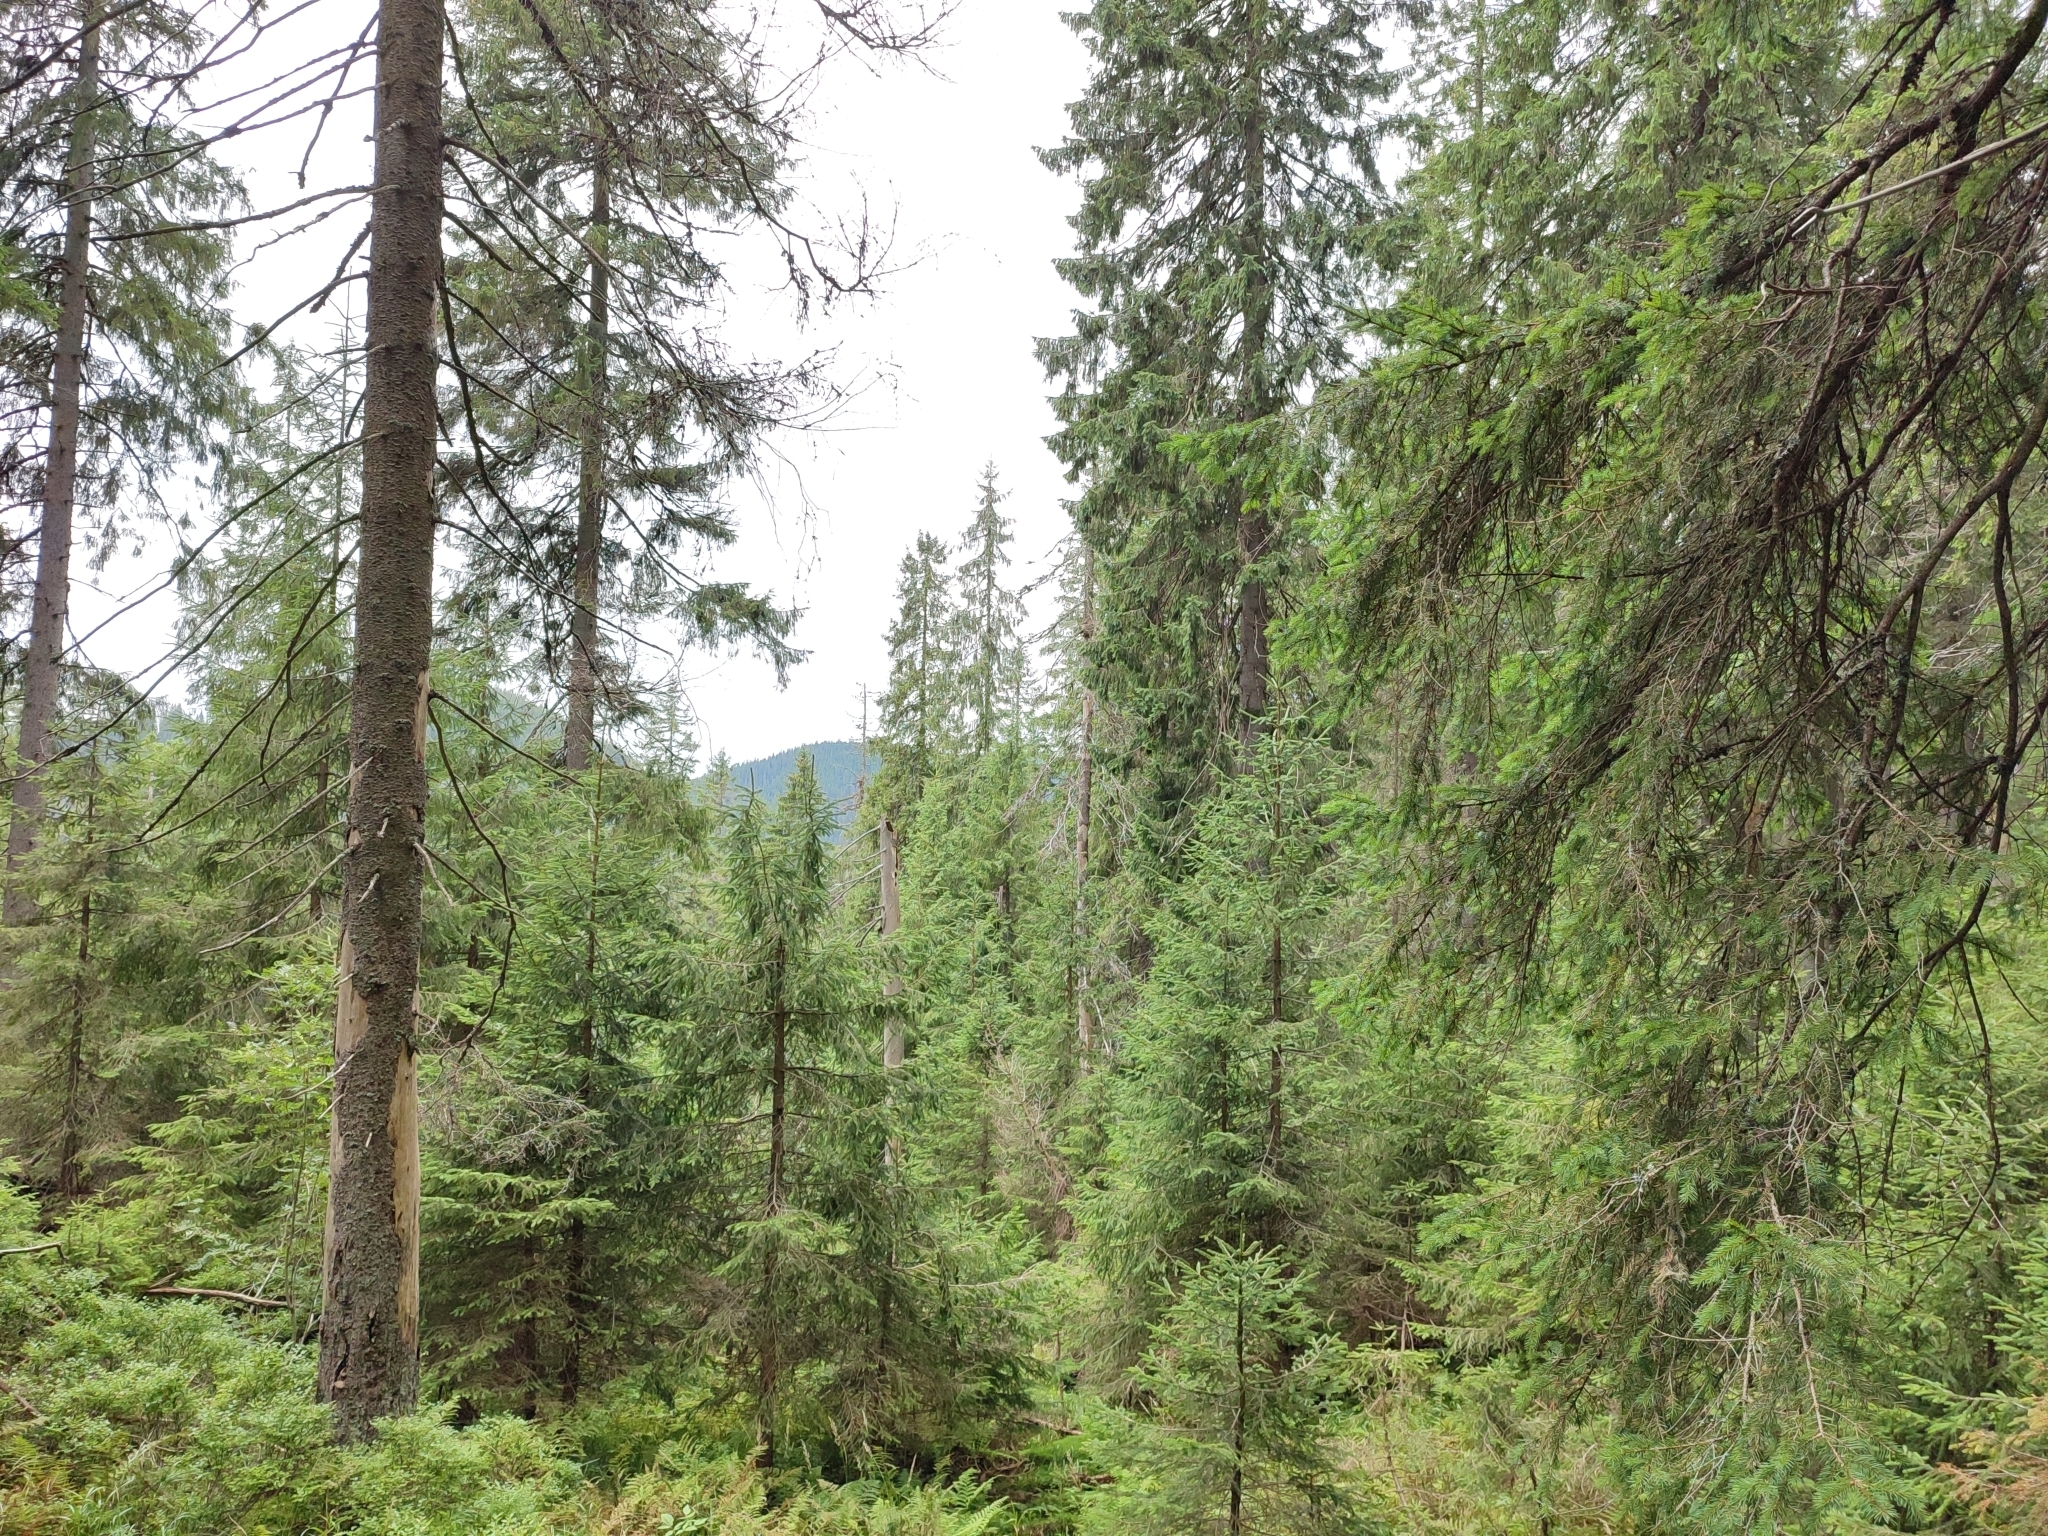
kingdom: Plantae
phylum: Tracheophyta
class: Pinopsida
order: Pinales
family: Pinaceae
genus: Picea
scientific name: Picea abies
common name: Norway spruce
